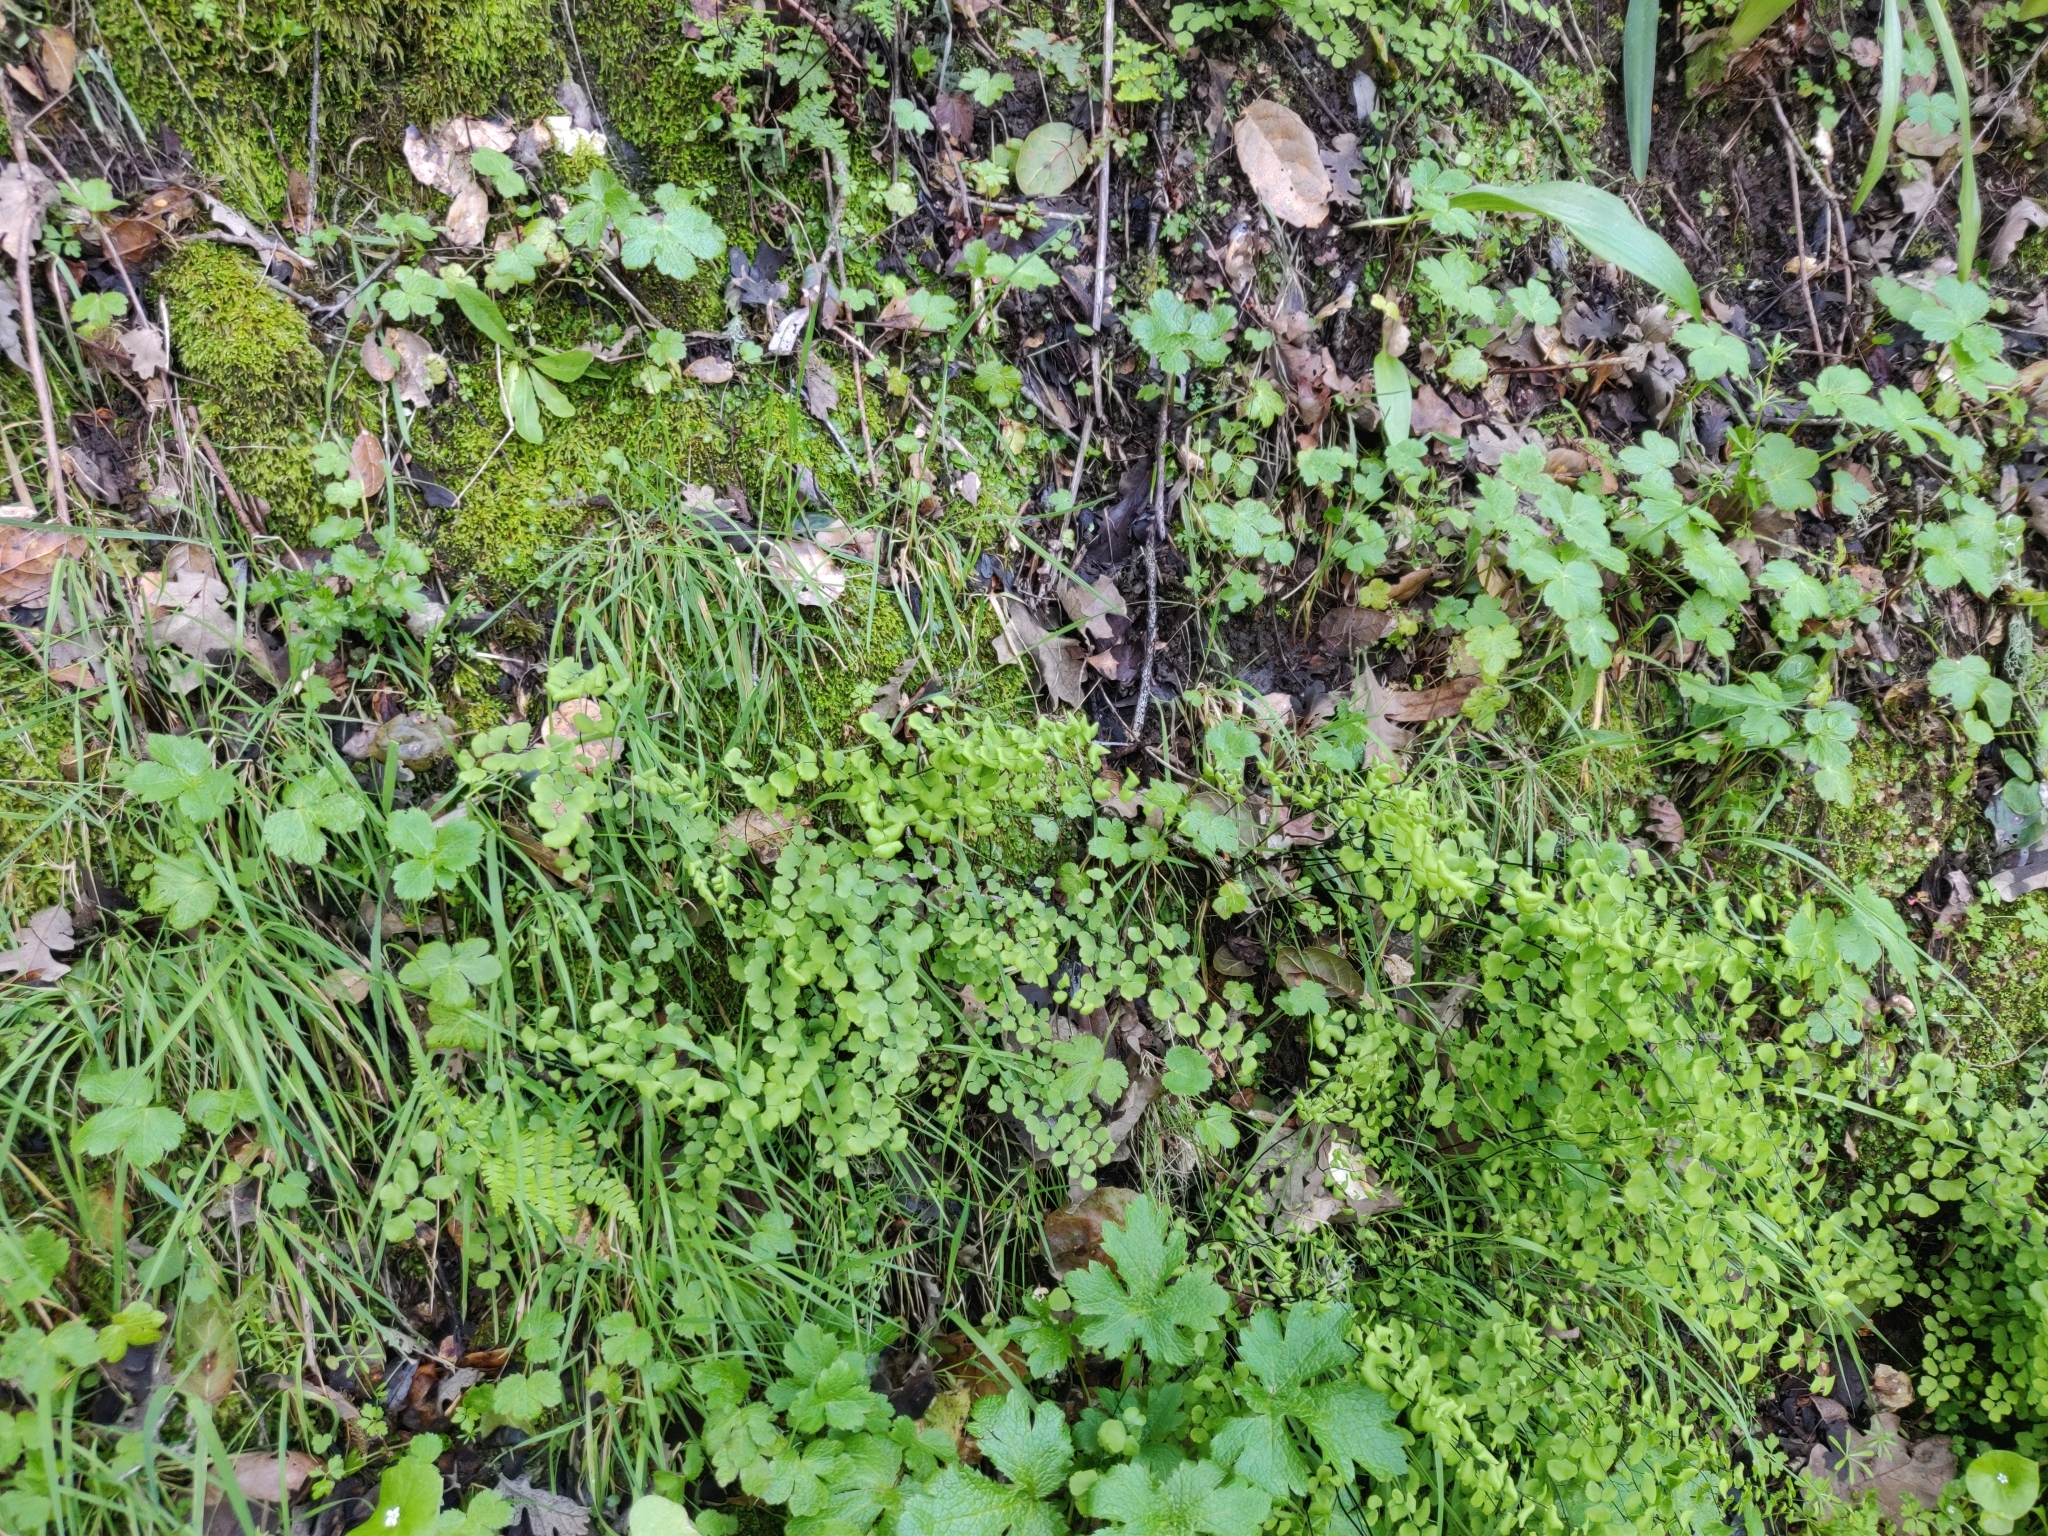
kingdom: Plantae
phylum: Tracheophyta
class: Polypodiopsida
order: Polypodiales
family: Pteridaceae
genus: Adiantum
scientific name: Adiantum jordanii
